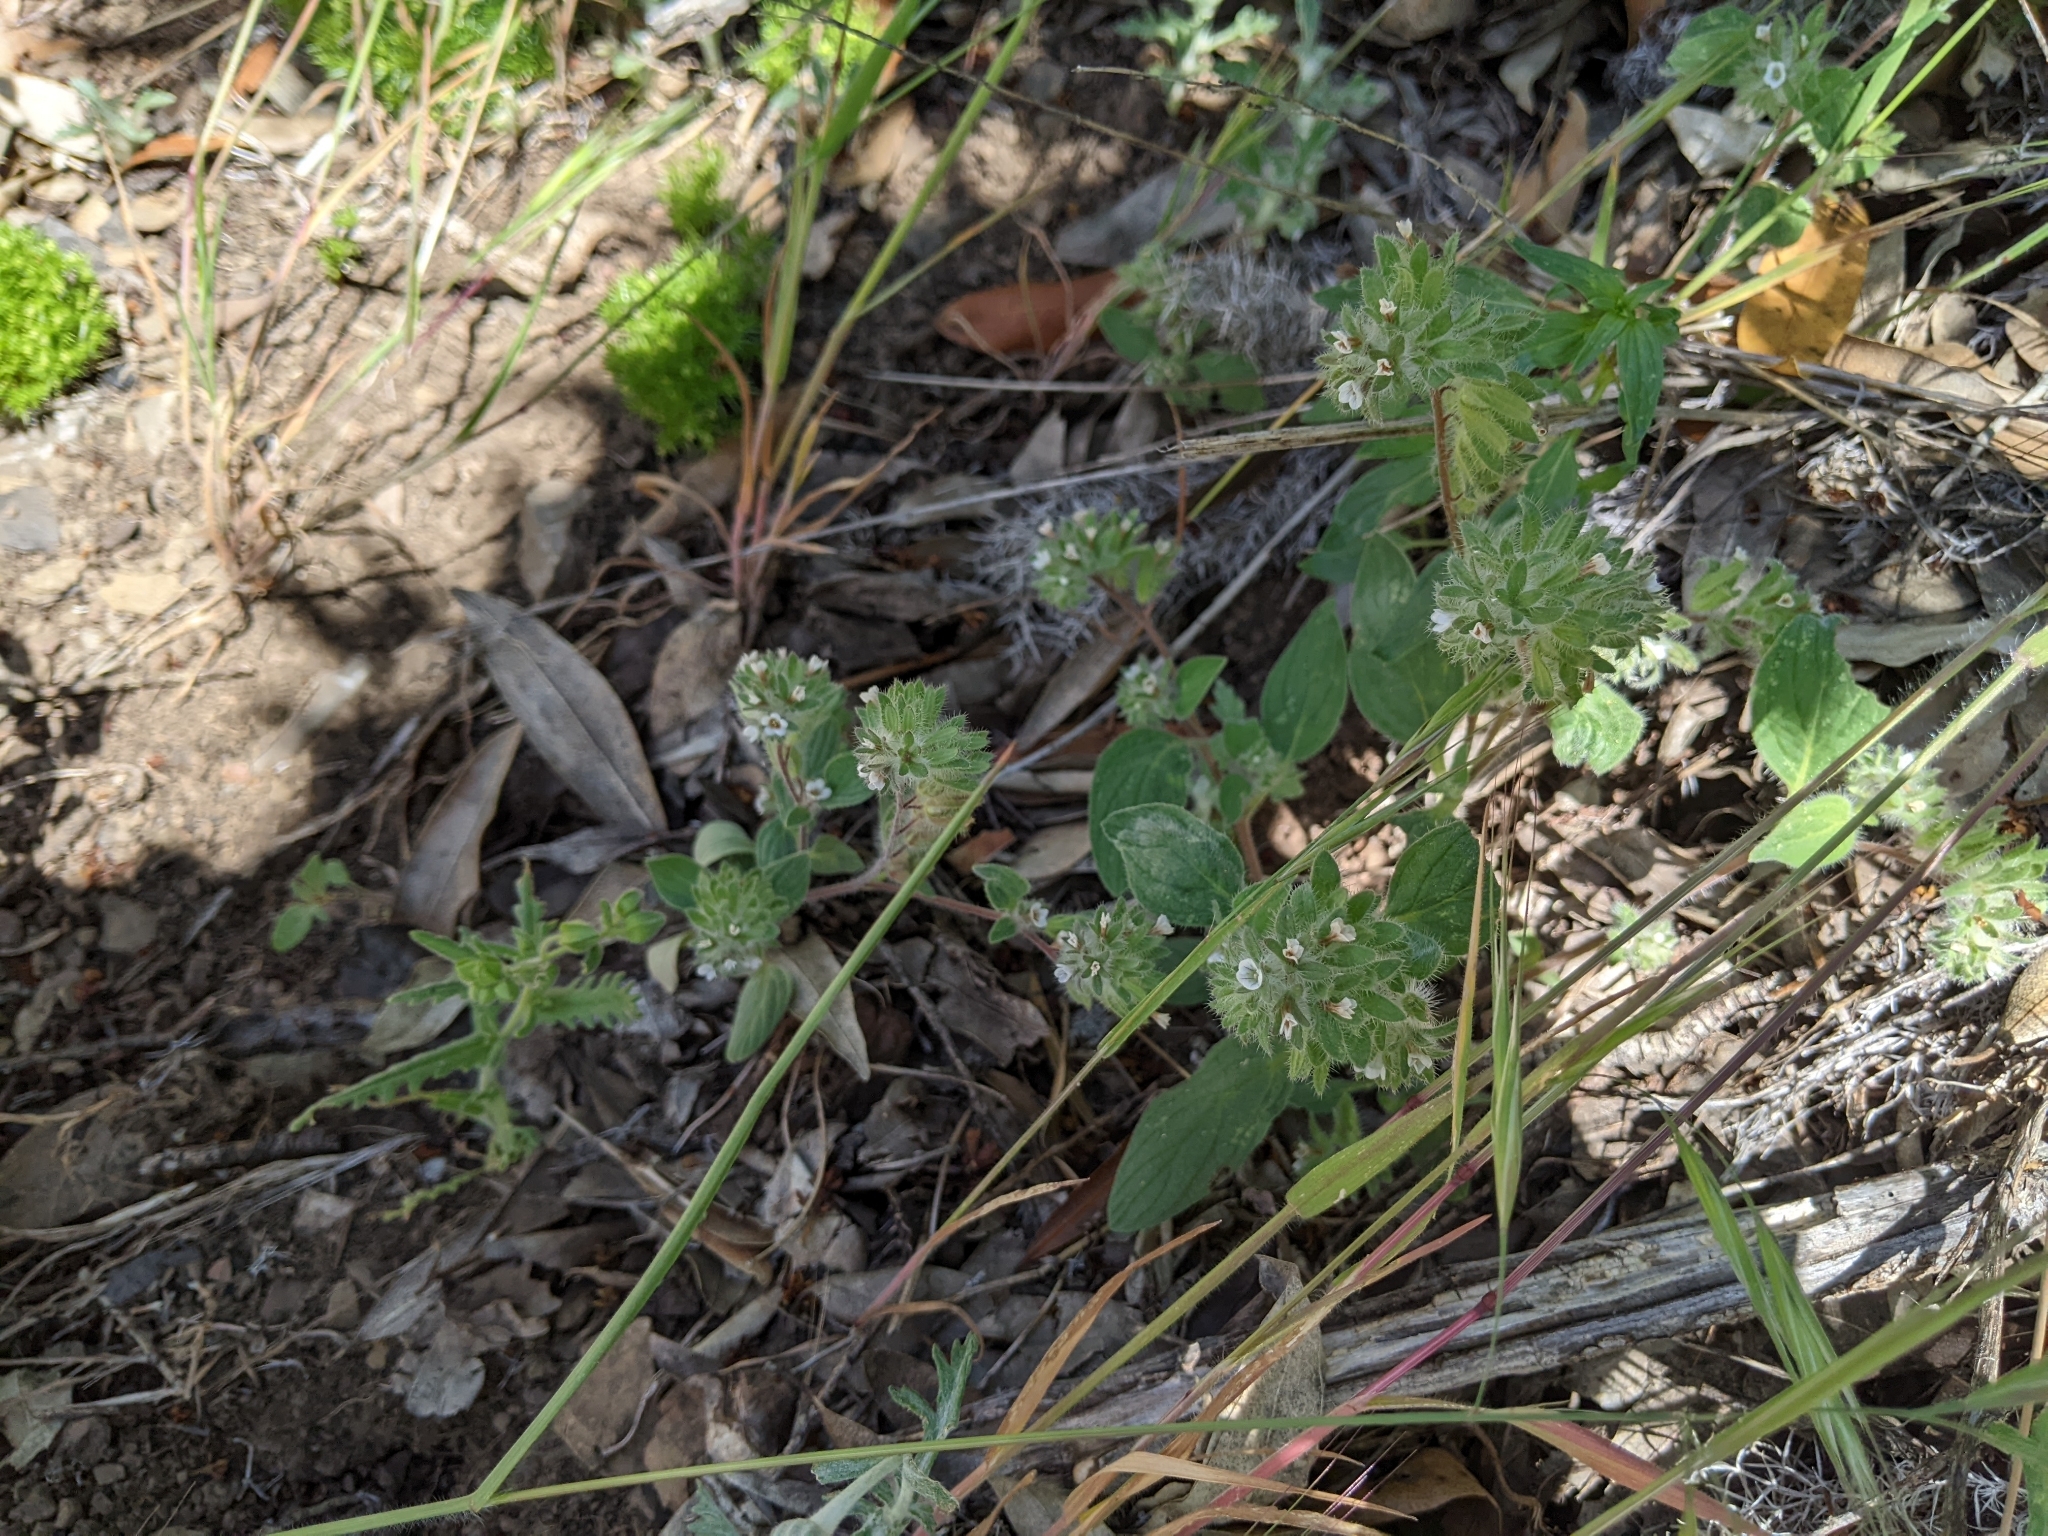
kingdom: Plantae
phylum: Tracheophyta
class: Magnoliopsida
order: Boraginales
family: Hydrophyllaceae
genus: Phacelia
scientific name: Phacelia phacelioides
